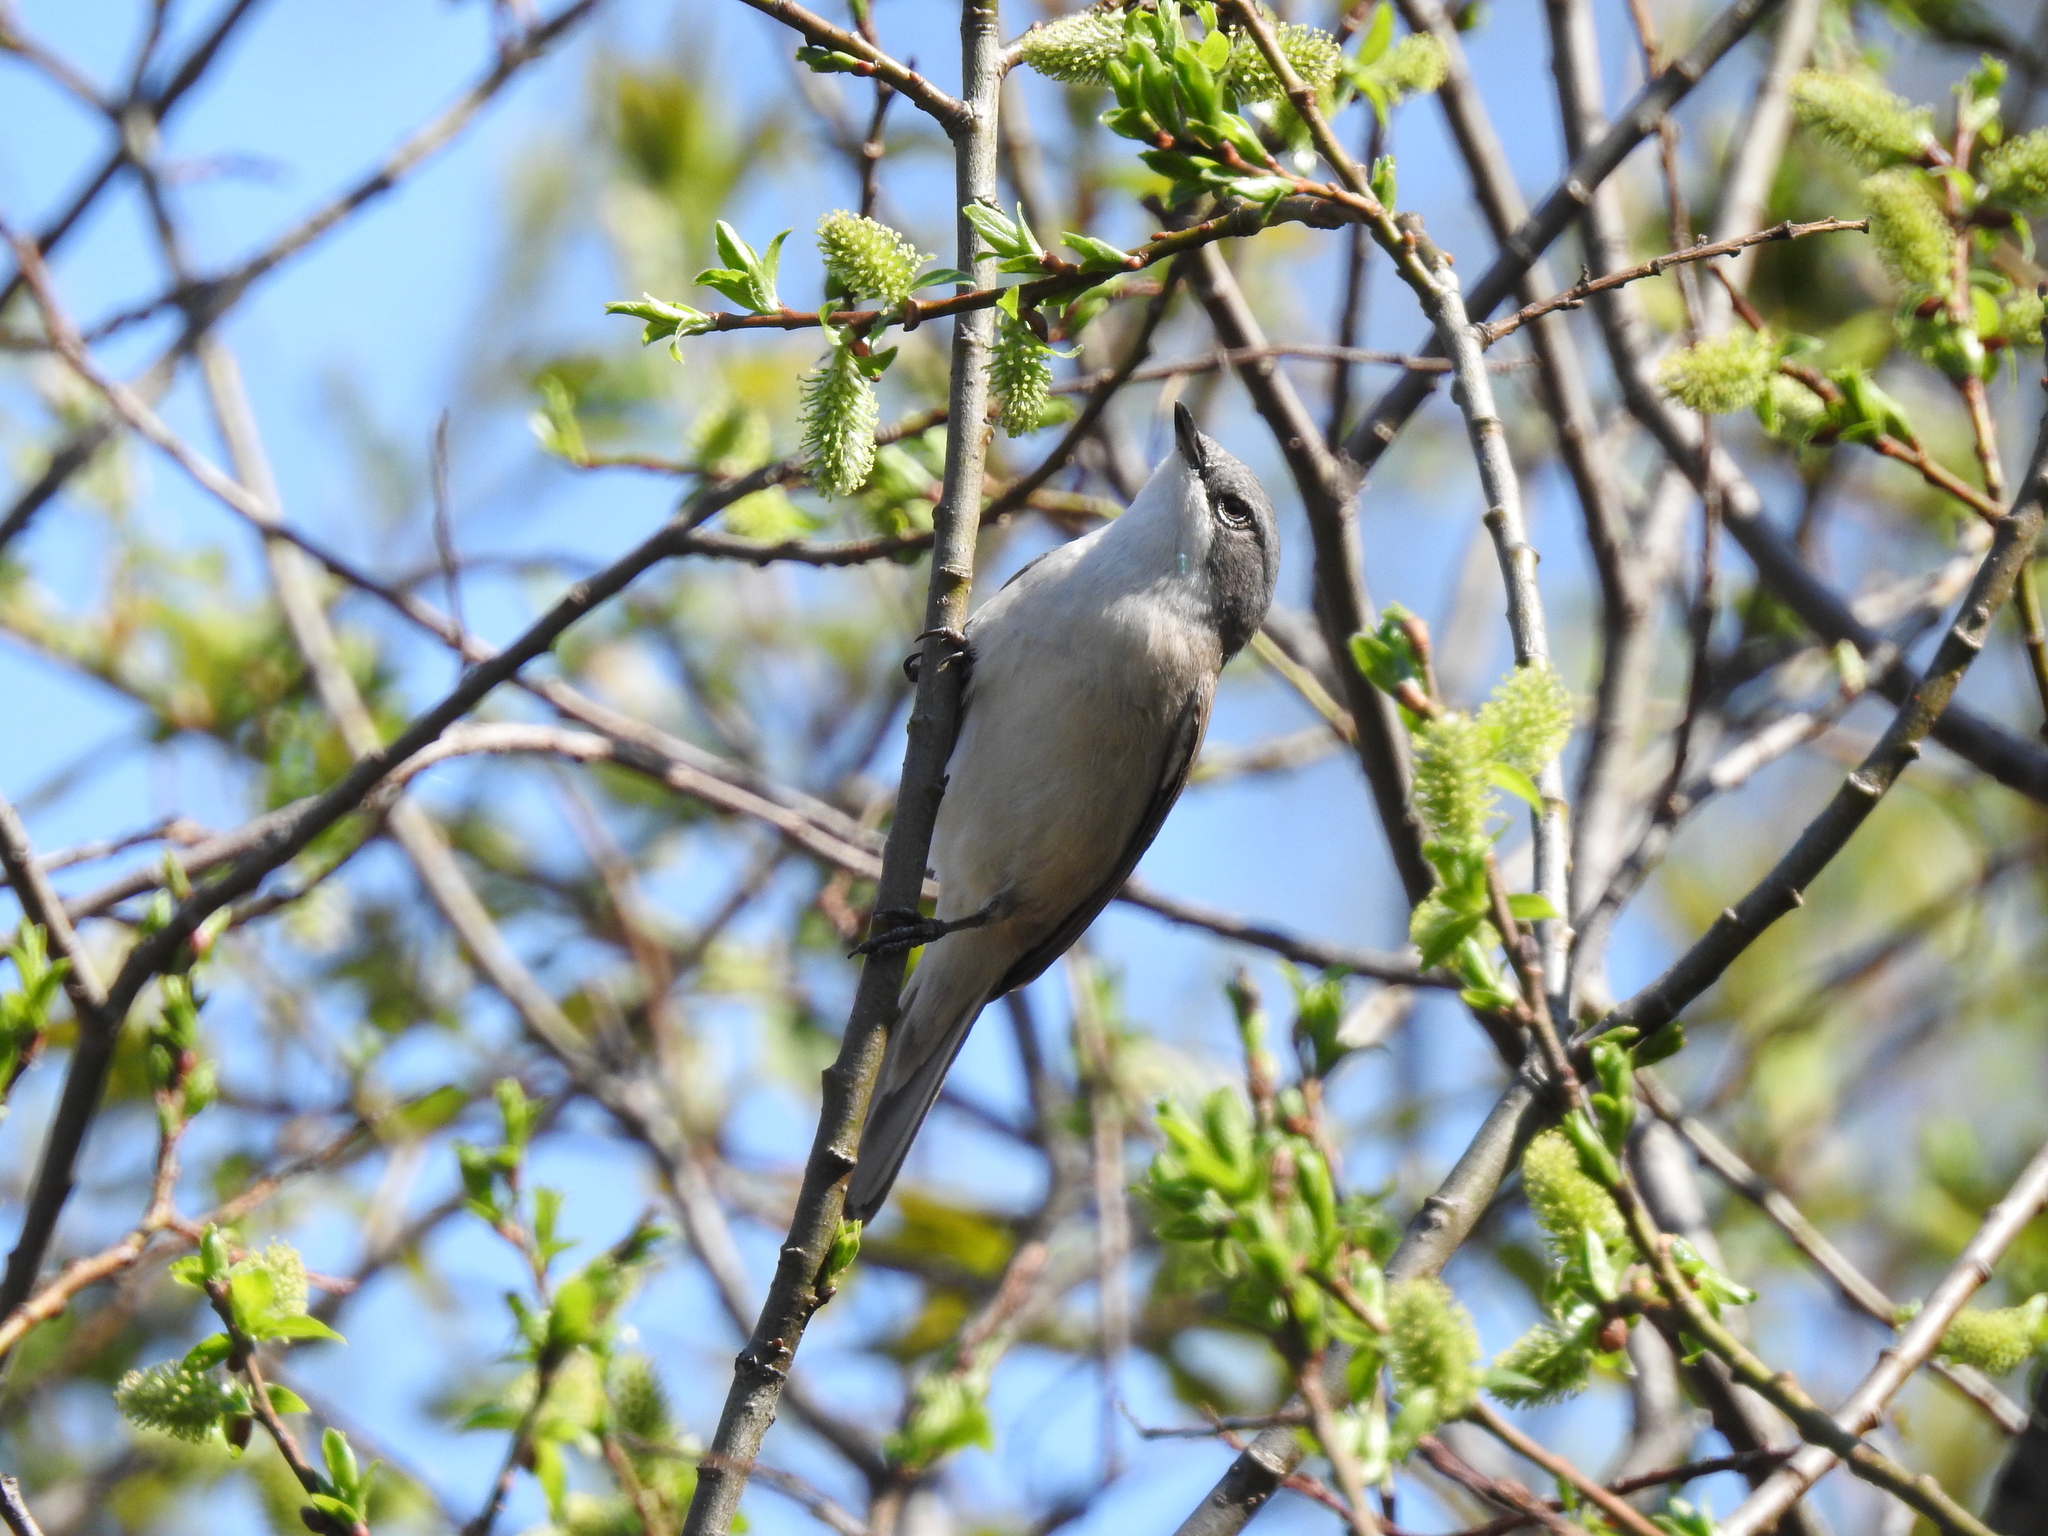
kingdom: Animalia
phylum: Chordata
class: Aves
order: Passeriformes
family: Sylviidae
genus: Sylvia
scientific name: Sylvia curruca
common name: Lesser whitethroat
